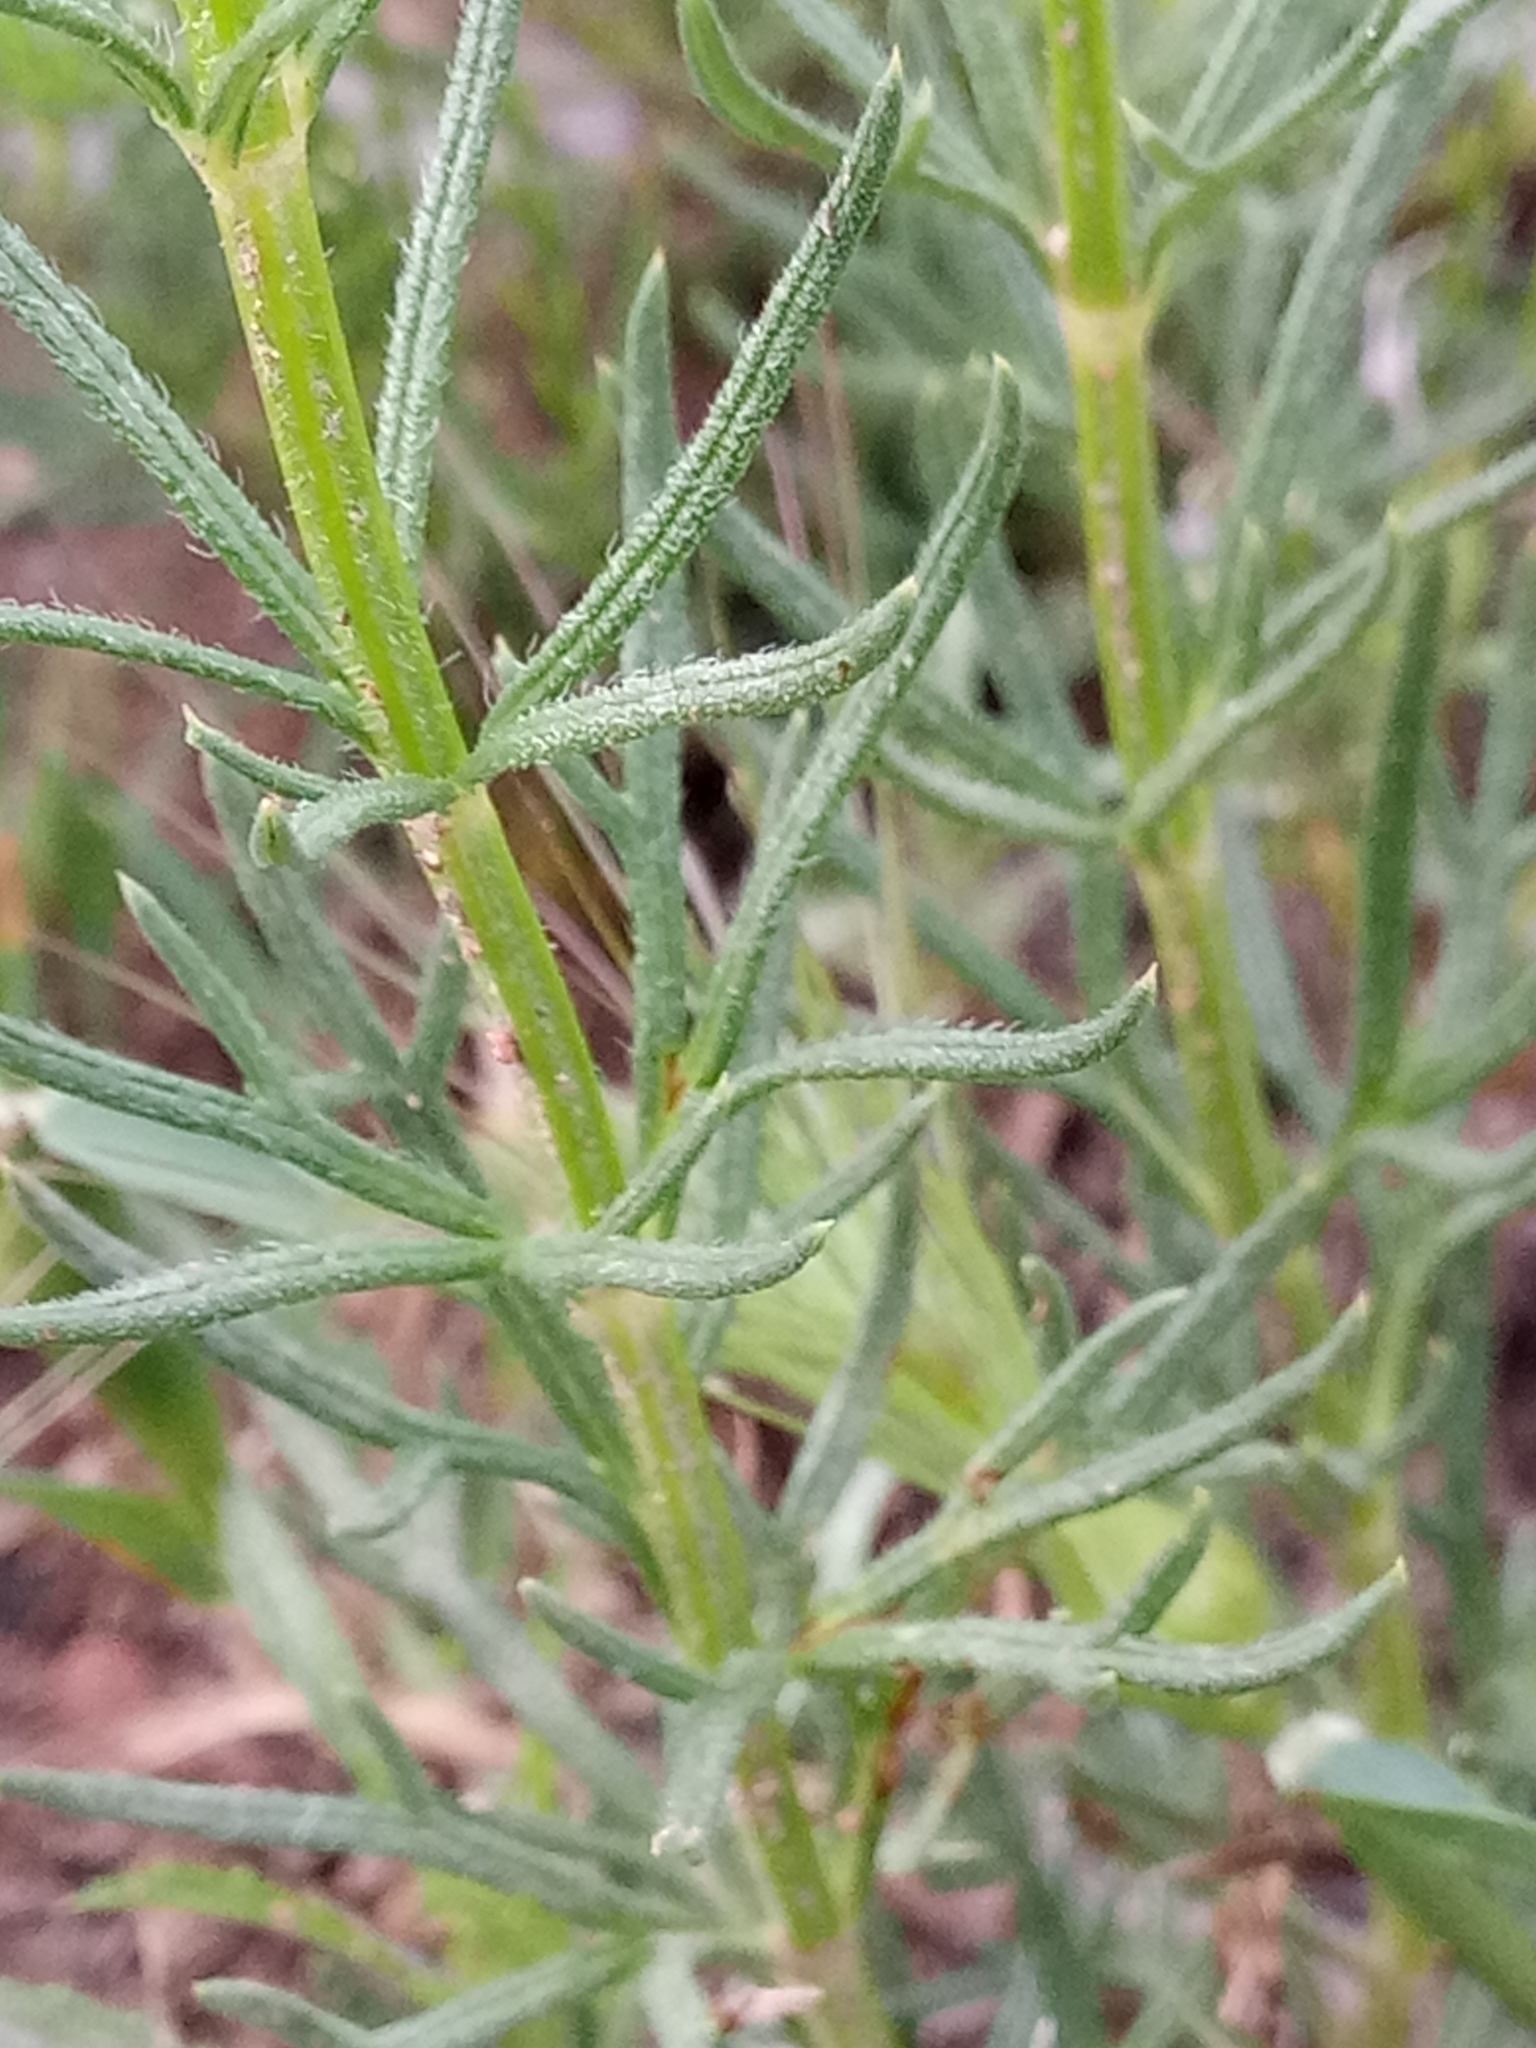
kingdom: Plantae
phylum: Tracheophyta
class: Magnoliopsida
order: Lamiales
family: Lamiaceae
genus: Teucrium
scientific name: Teucrium pseudochamaepitys
